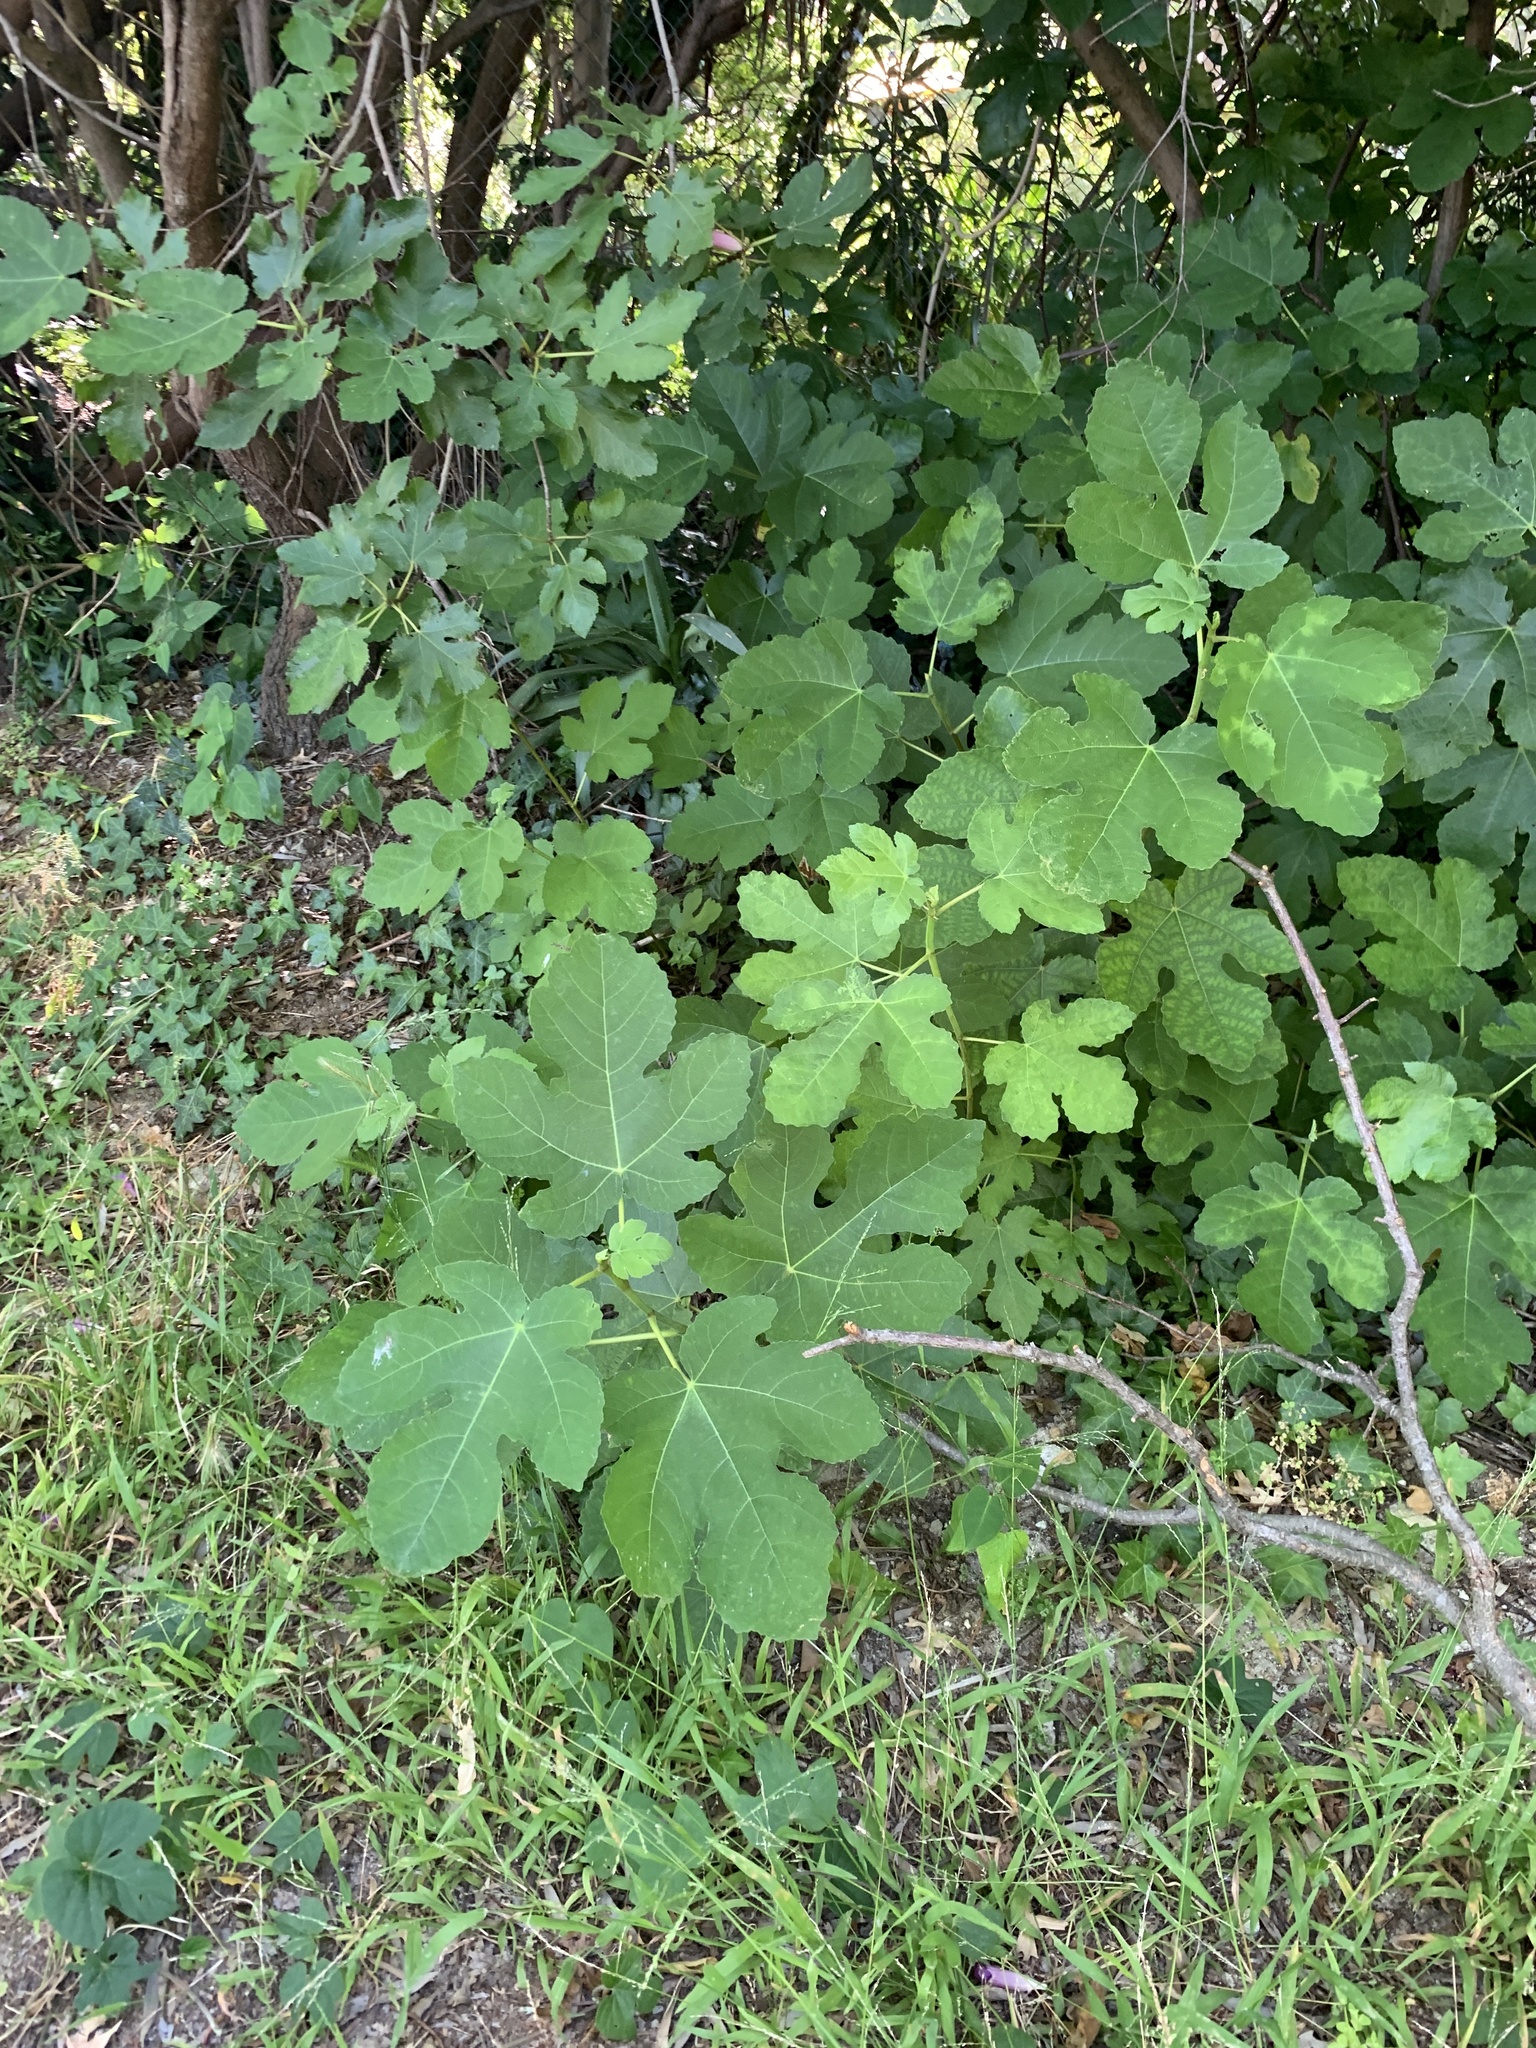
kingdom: Plantae
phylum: Tracheophyta
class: Magnoliopsida
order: Rosales
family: Moraceae
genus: Ficus
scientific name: Ficus carica
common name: Fig
